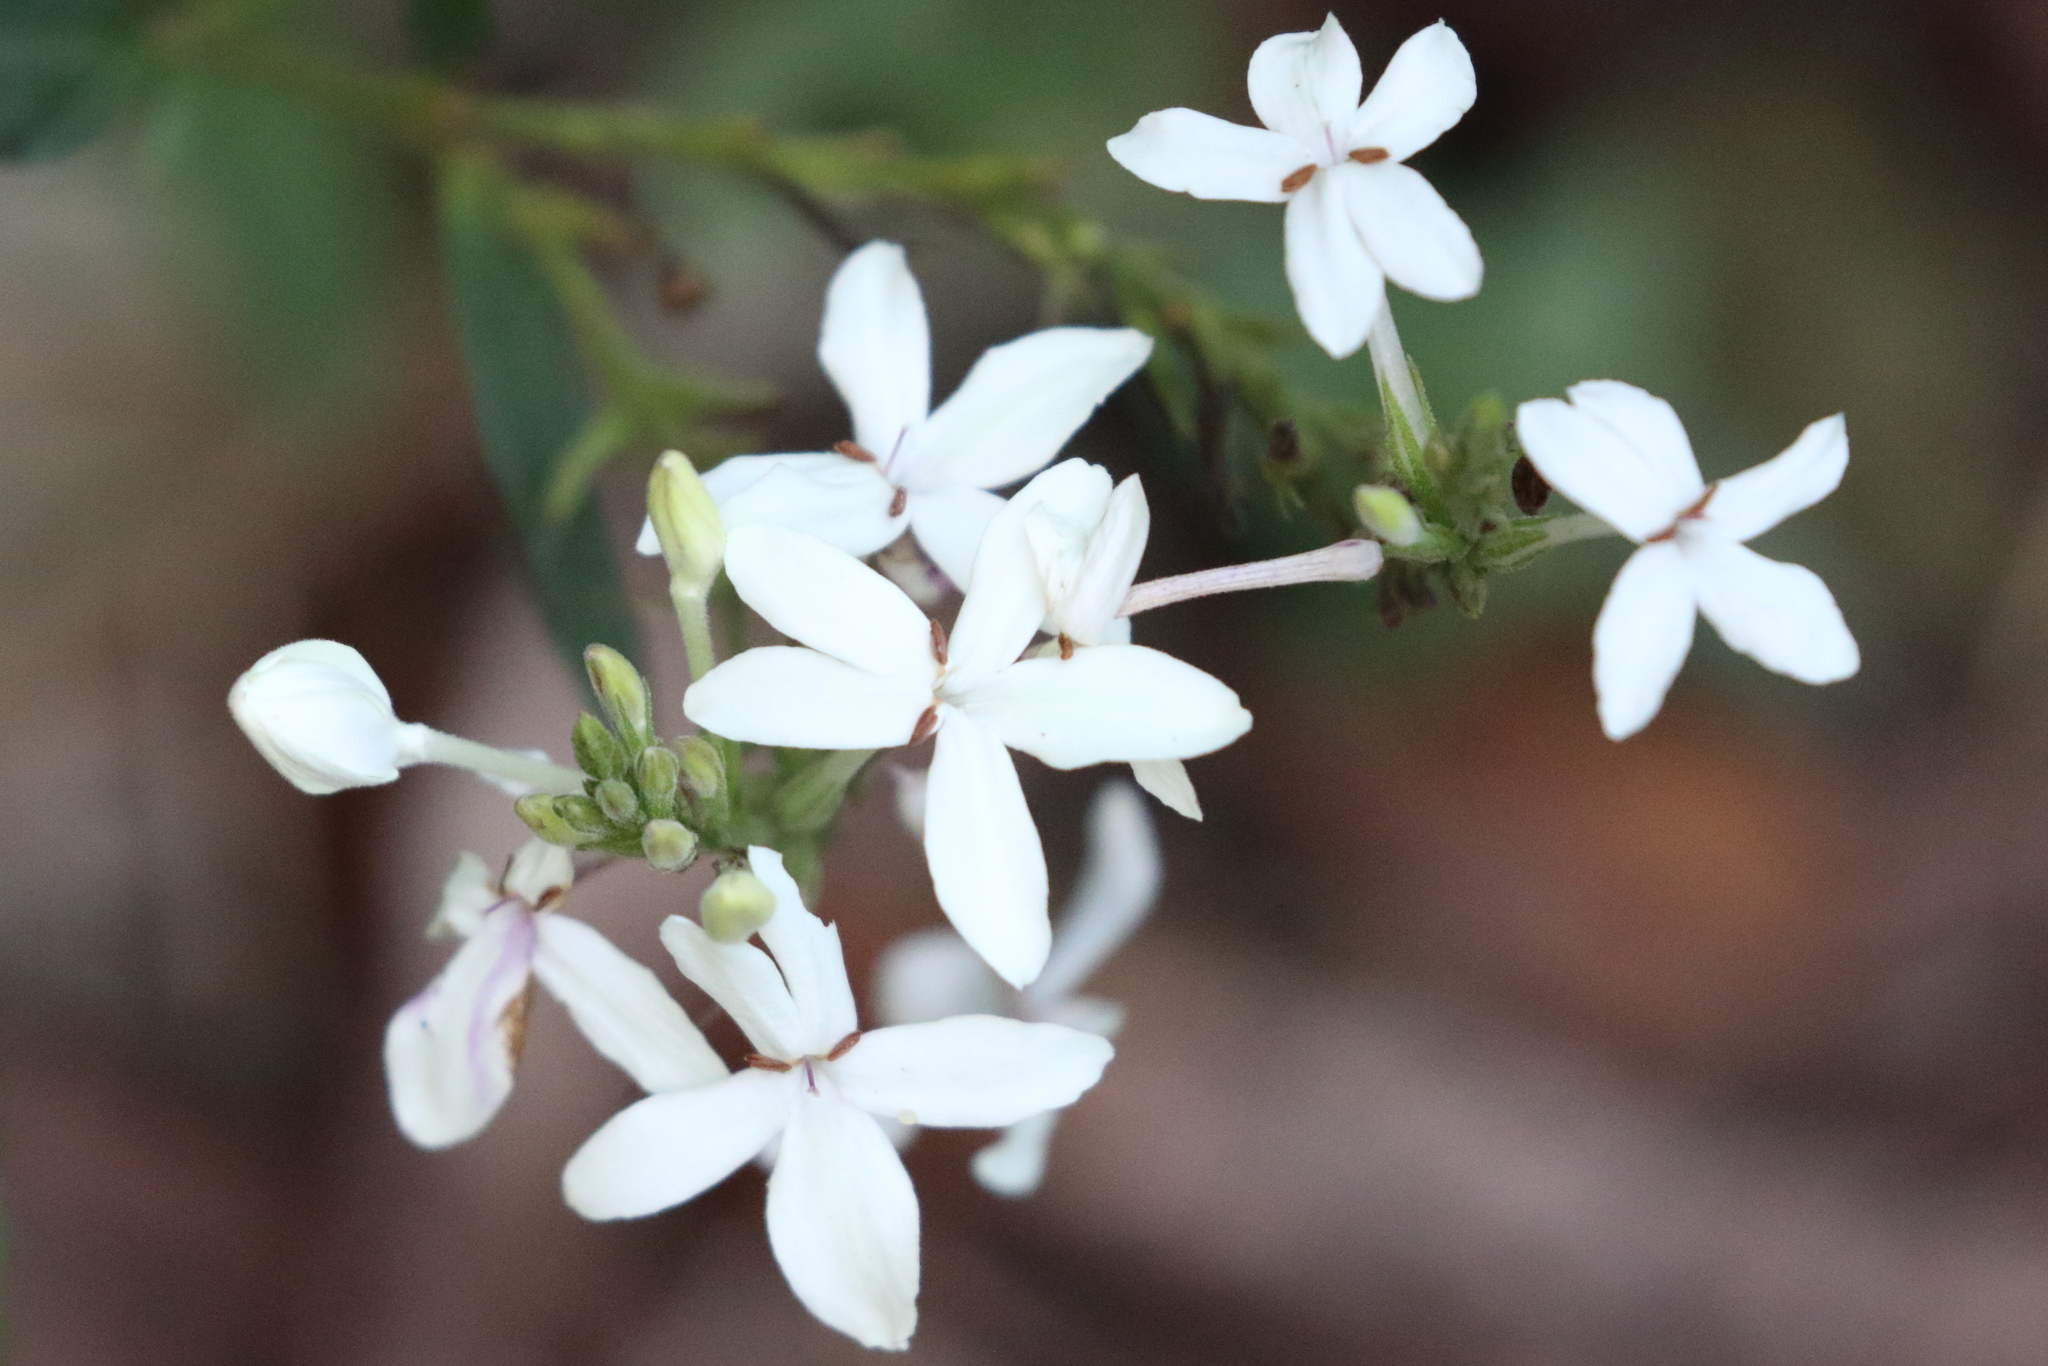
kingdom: Plantae
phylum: Tracheophyta
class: Magnoliopsida
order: Lamiales
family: Acanthaceae
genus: Pseuderanthemum
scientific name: Pseuderanthemum variabile
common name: Night and afternoon
